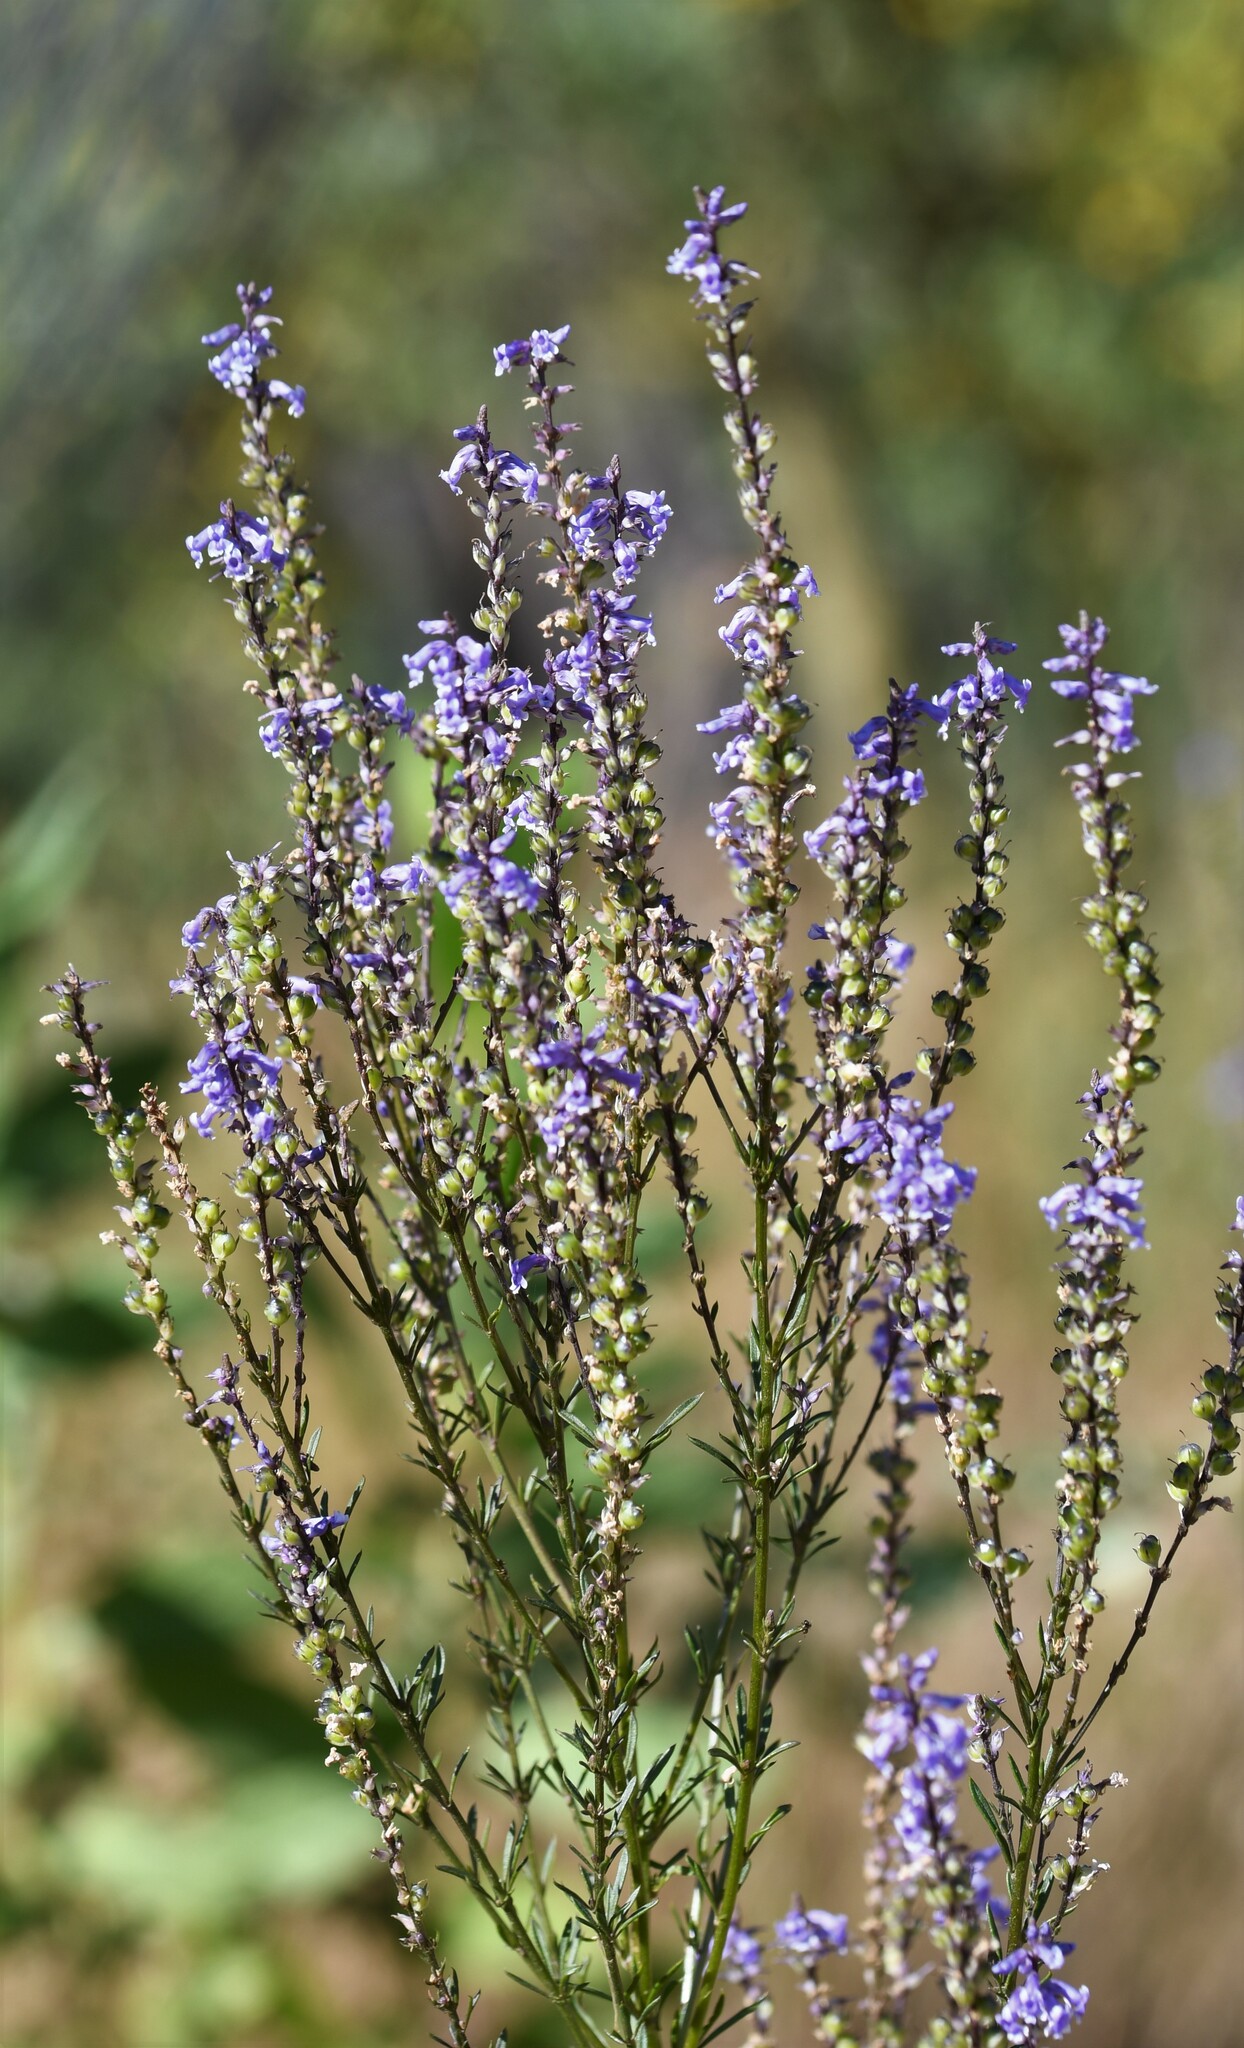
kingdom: Plantae
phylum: Tracheophyta
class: Magnoliopsida
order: Lamiales
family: Plantaginaceae
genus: Anarrhinum
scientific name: Anarrhinum bellidifolium
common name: Daisy-leaved toadflax
